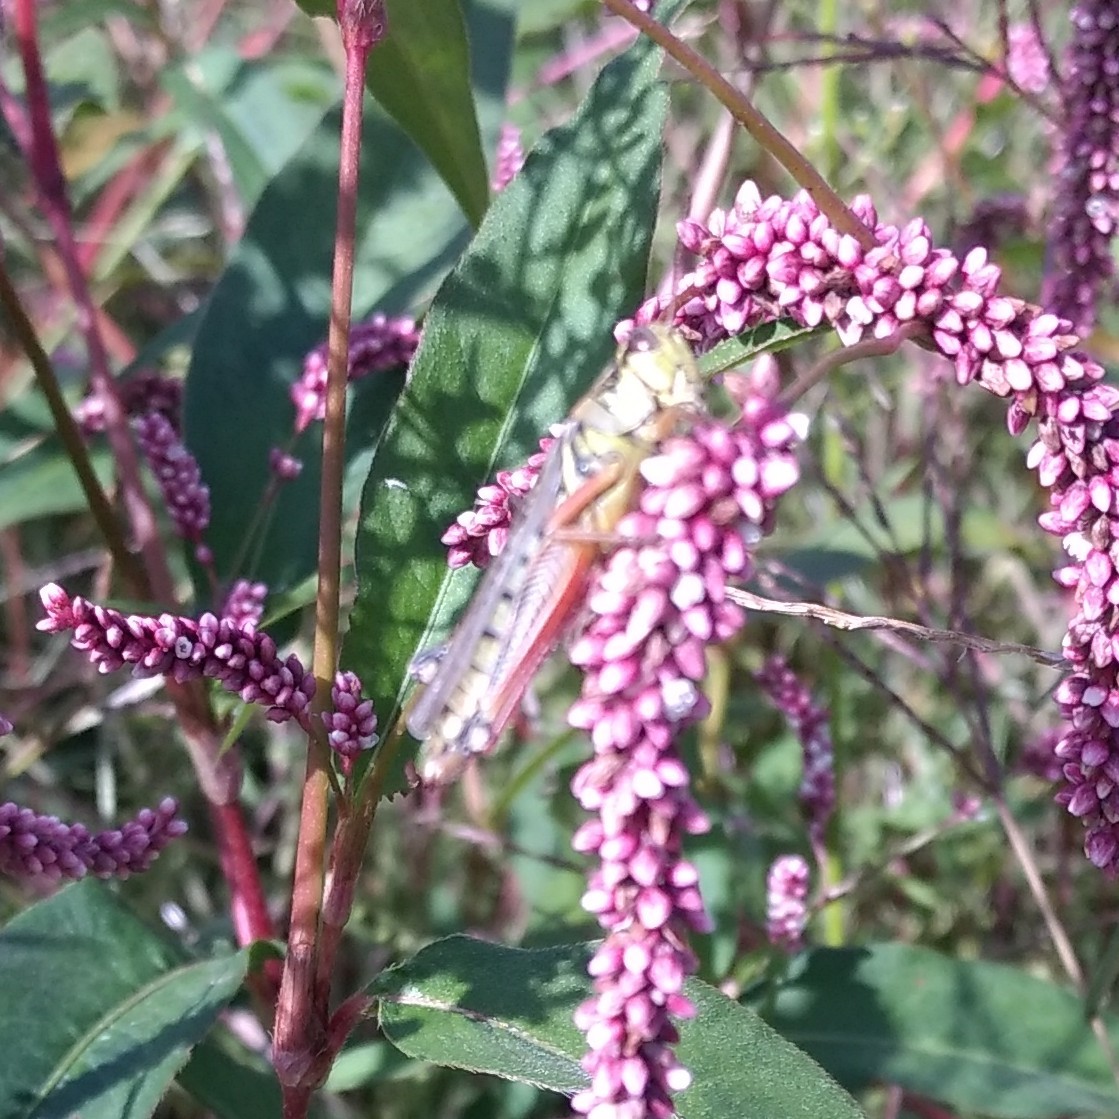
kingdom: Animalia
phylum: Arthropoda
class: Insecta
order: Orthoptera
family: Acrididae
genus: Melanoplus
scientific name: Melanoplus femurrubrum
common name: Red-legged grasshopper
